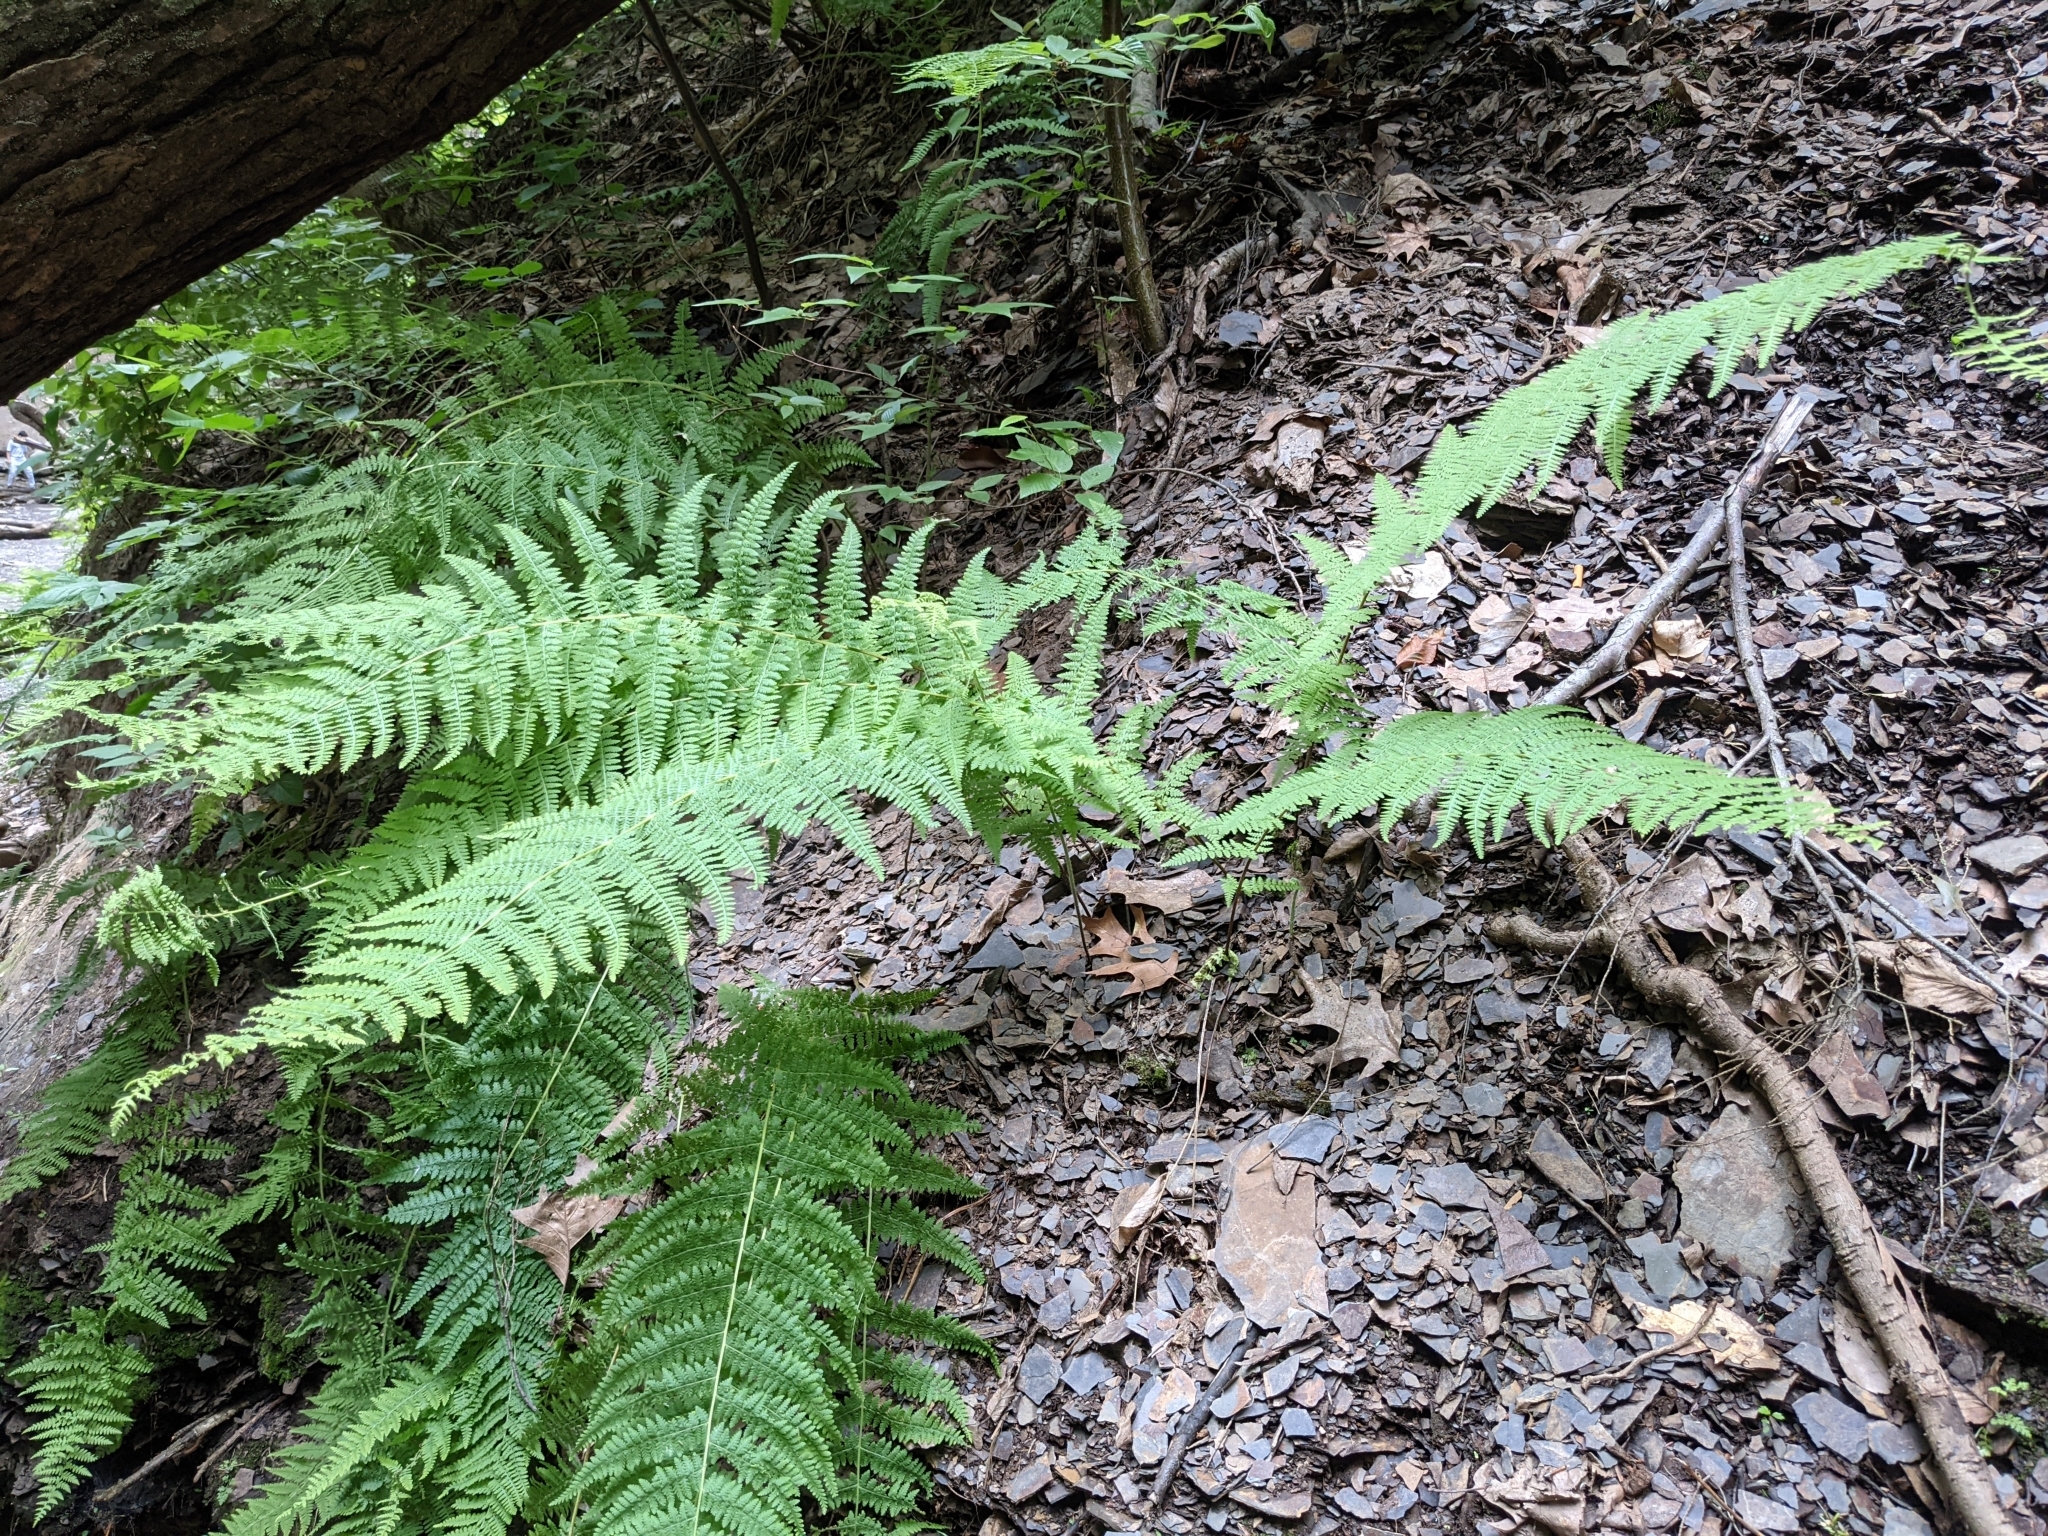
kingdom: Plantae
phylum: Tracheophyta
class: Polypodiopsida
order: Polypodiales
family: Dennstaedtiaceae
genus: Sitobolium
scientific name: Sitobolium punctilobum
